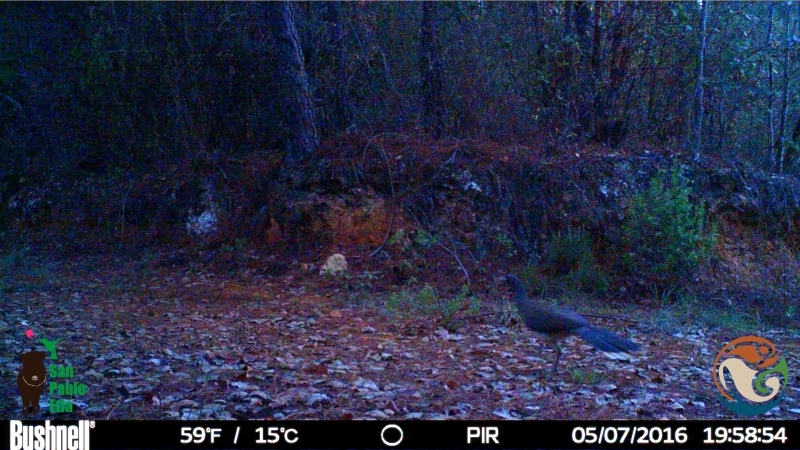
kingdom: Animalia
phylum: Chordata
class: Aves
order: Galliformes
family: Cracidae
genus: Ortalis
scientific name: Ortalis poliocephala
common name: West mexican chachalaca
